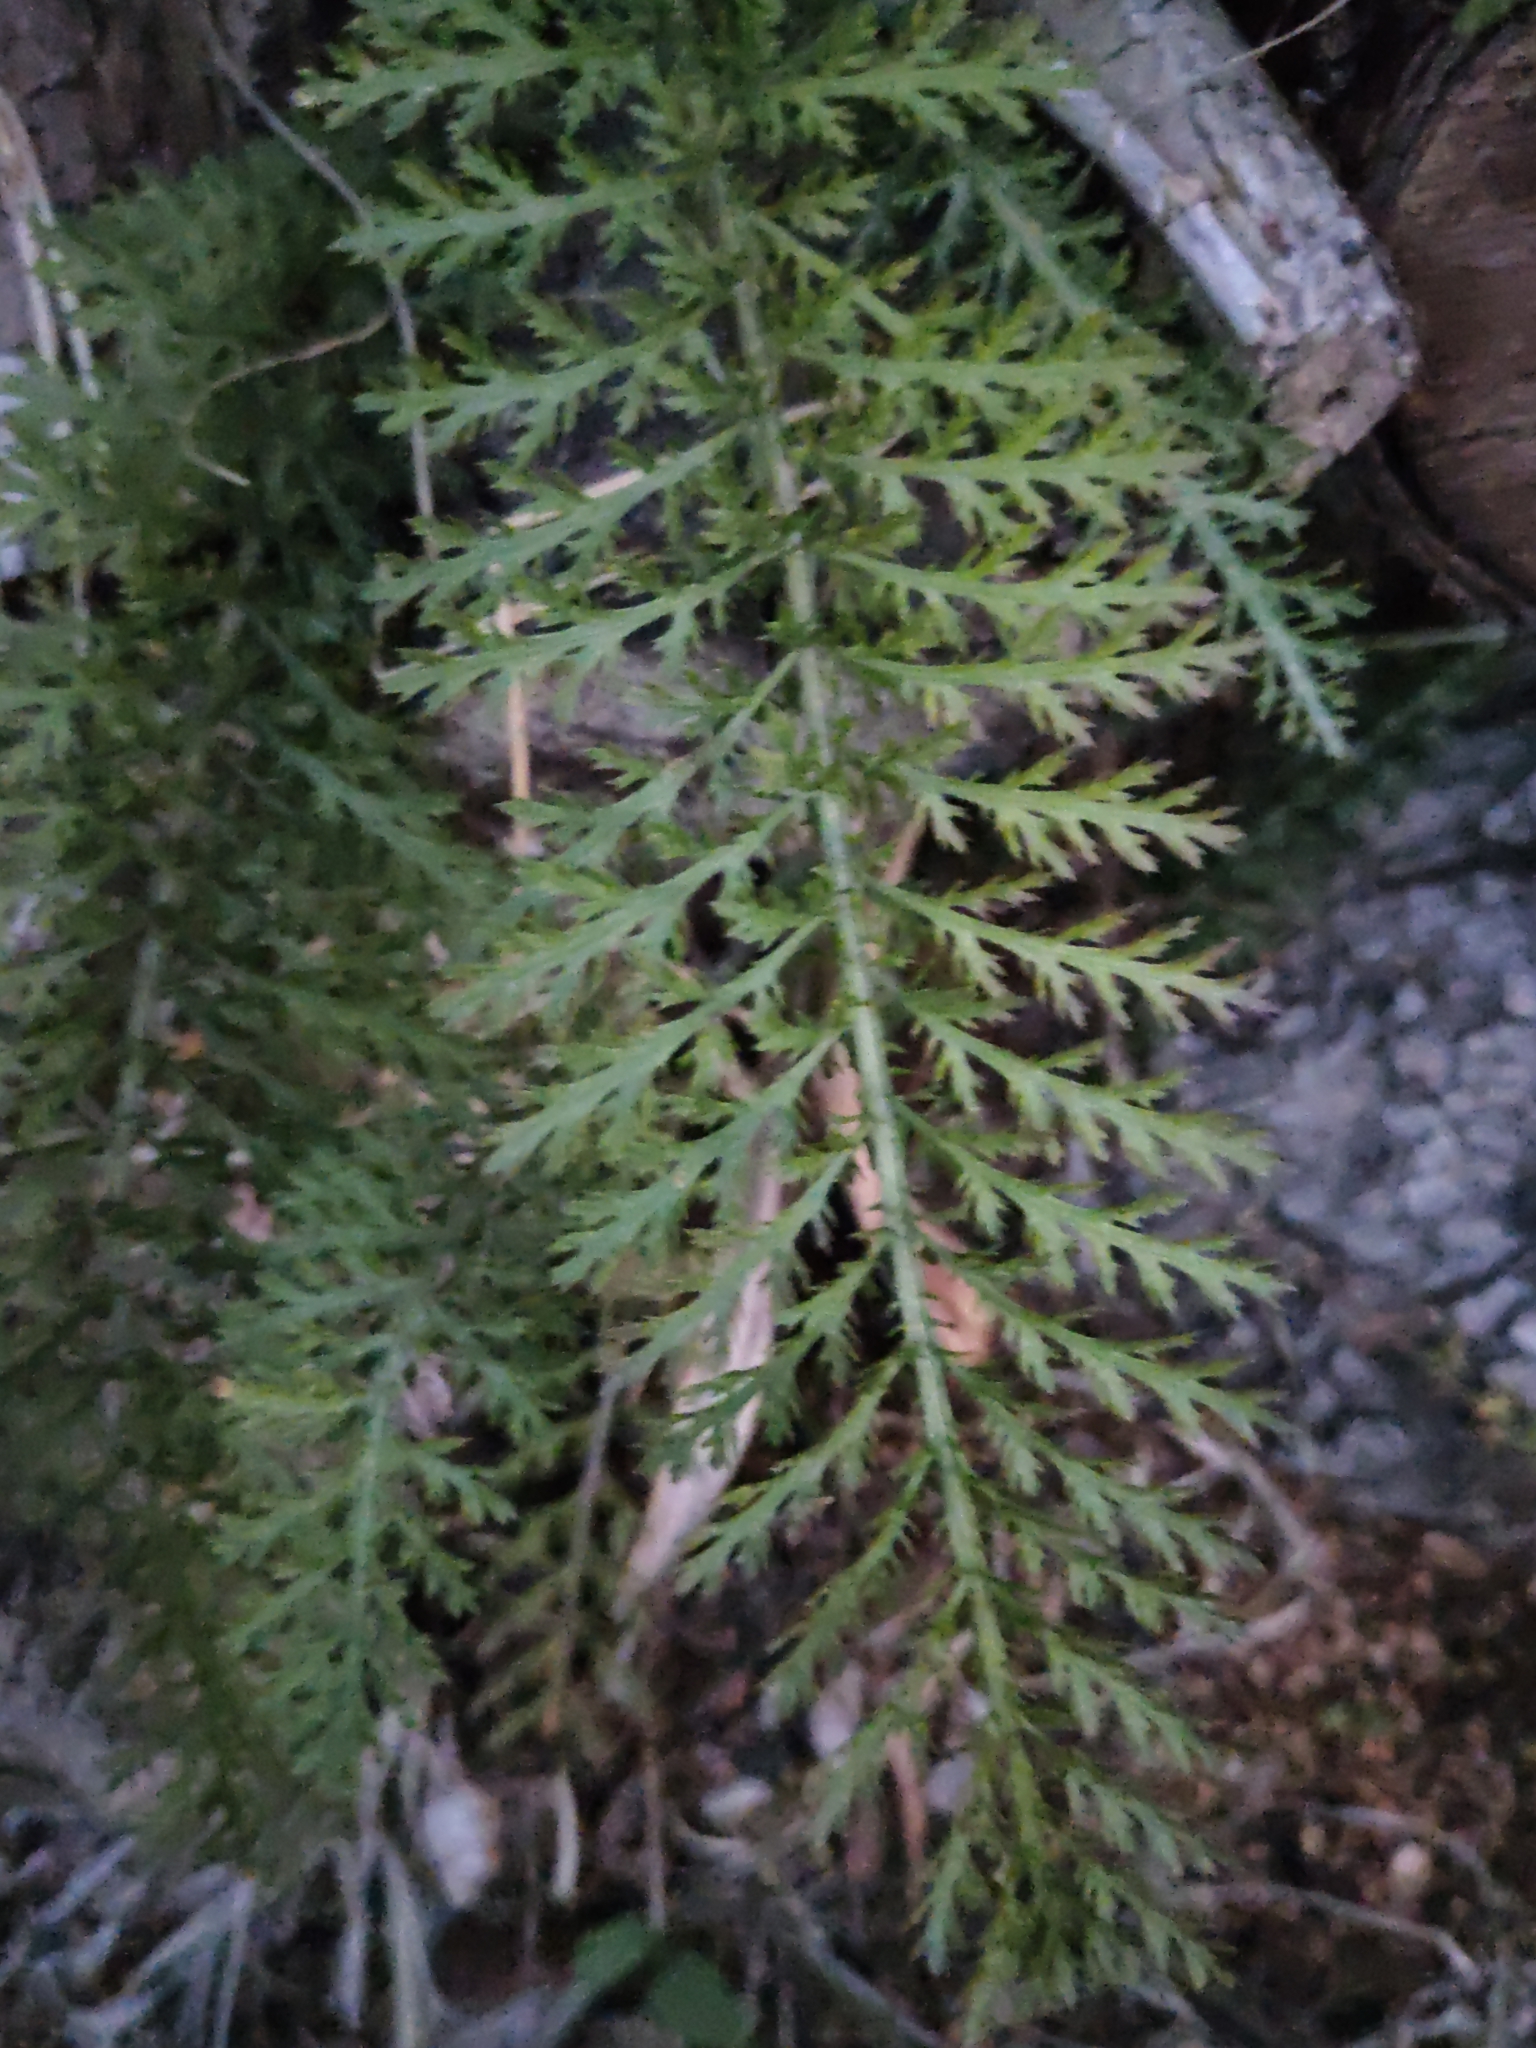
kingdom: Plantae
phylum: Tracheophyta
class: Magnoliopsida
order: Asterales
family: Asteraceae
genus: Achillea
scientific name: Achillea millefolium
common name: Yarrow
